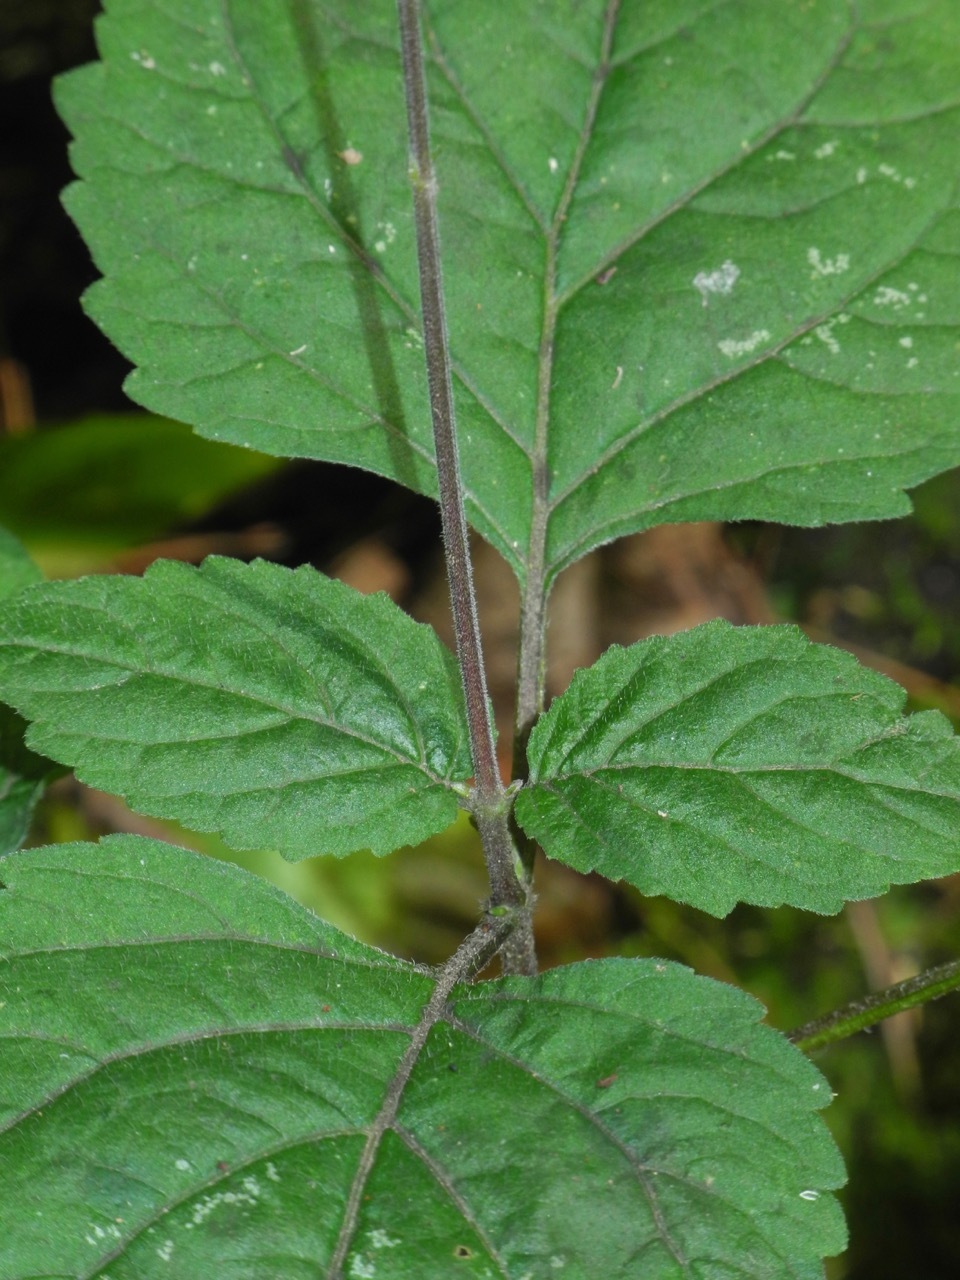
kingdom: Plantae
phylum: Tracheophyta
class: Magnoliopsida
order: Lamiales
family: Phrymaceae
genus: Phryma
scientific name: Phryma leptostachya
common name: American lopseed
